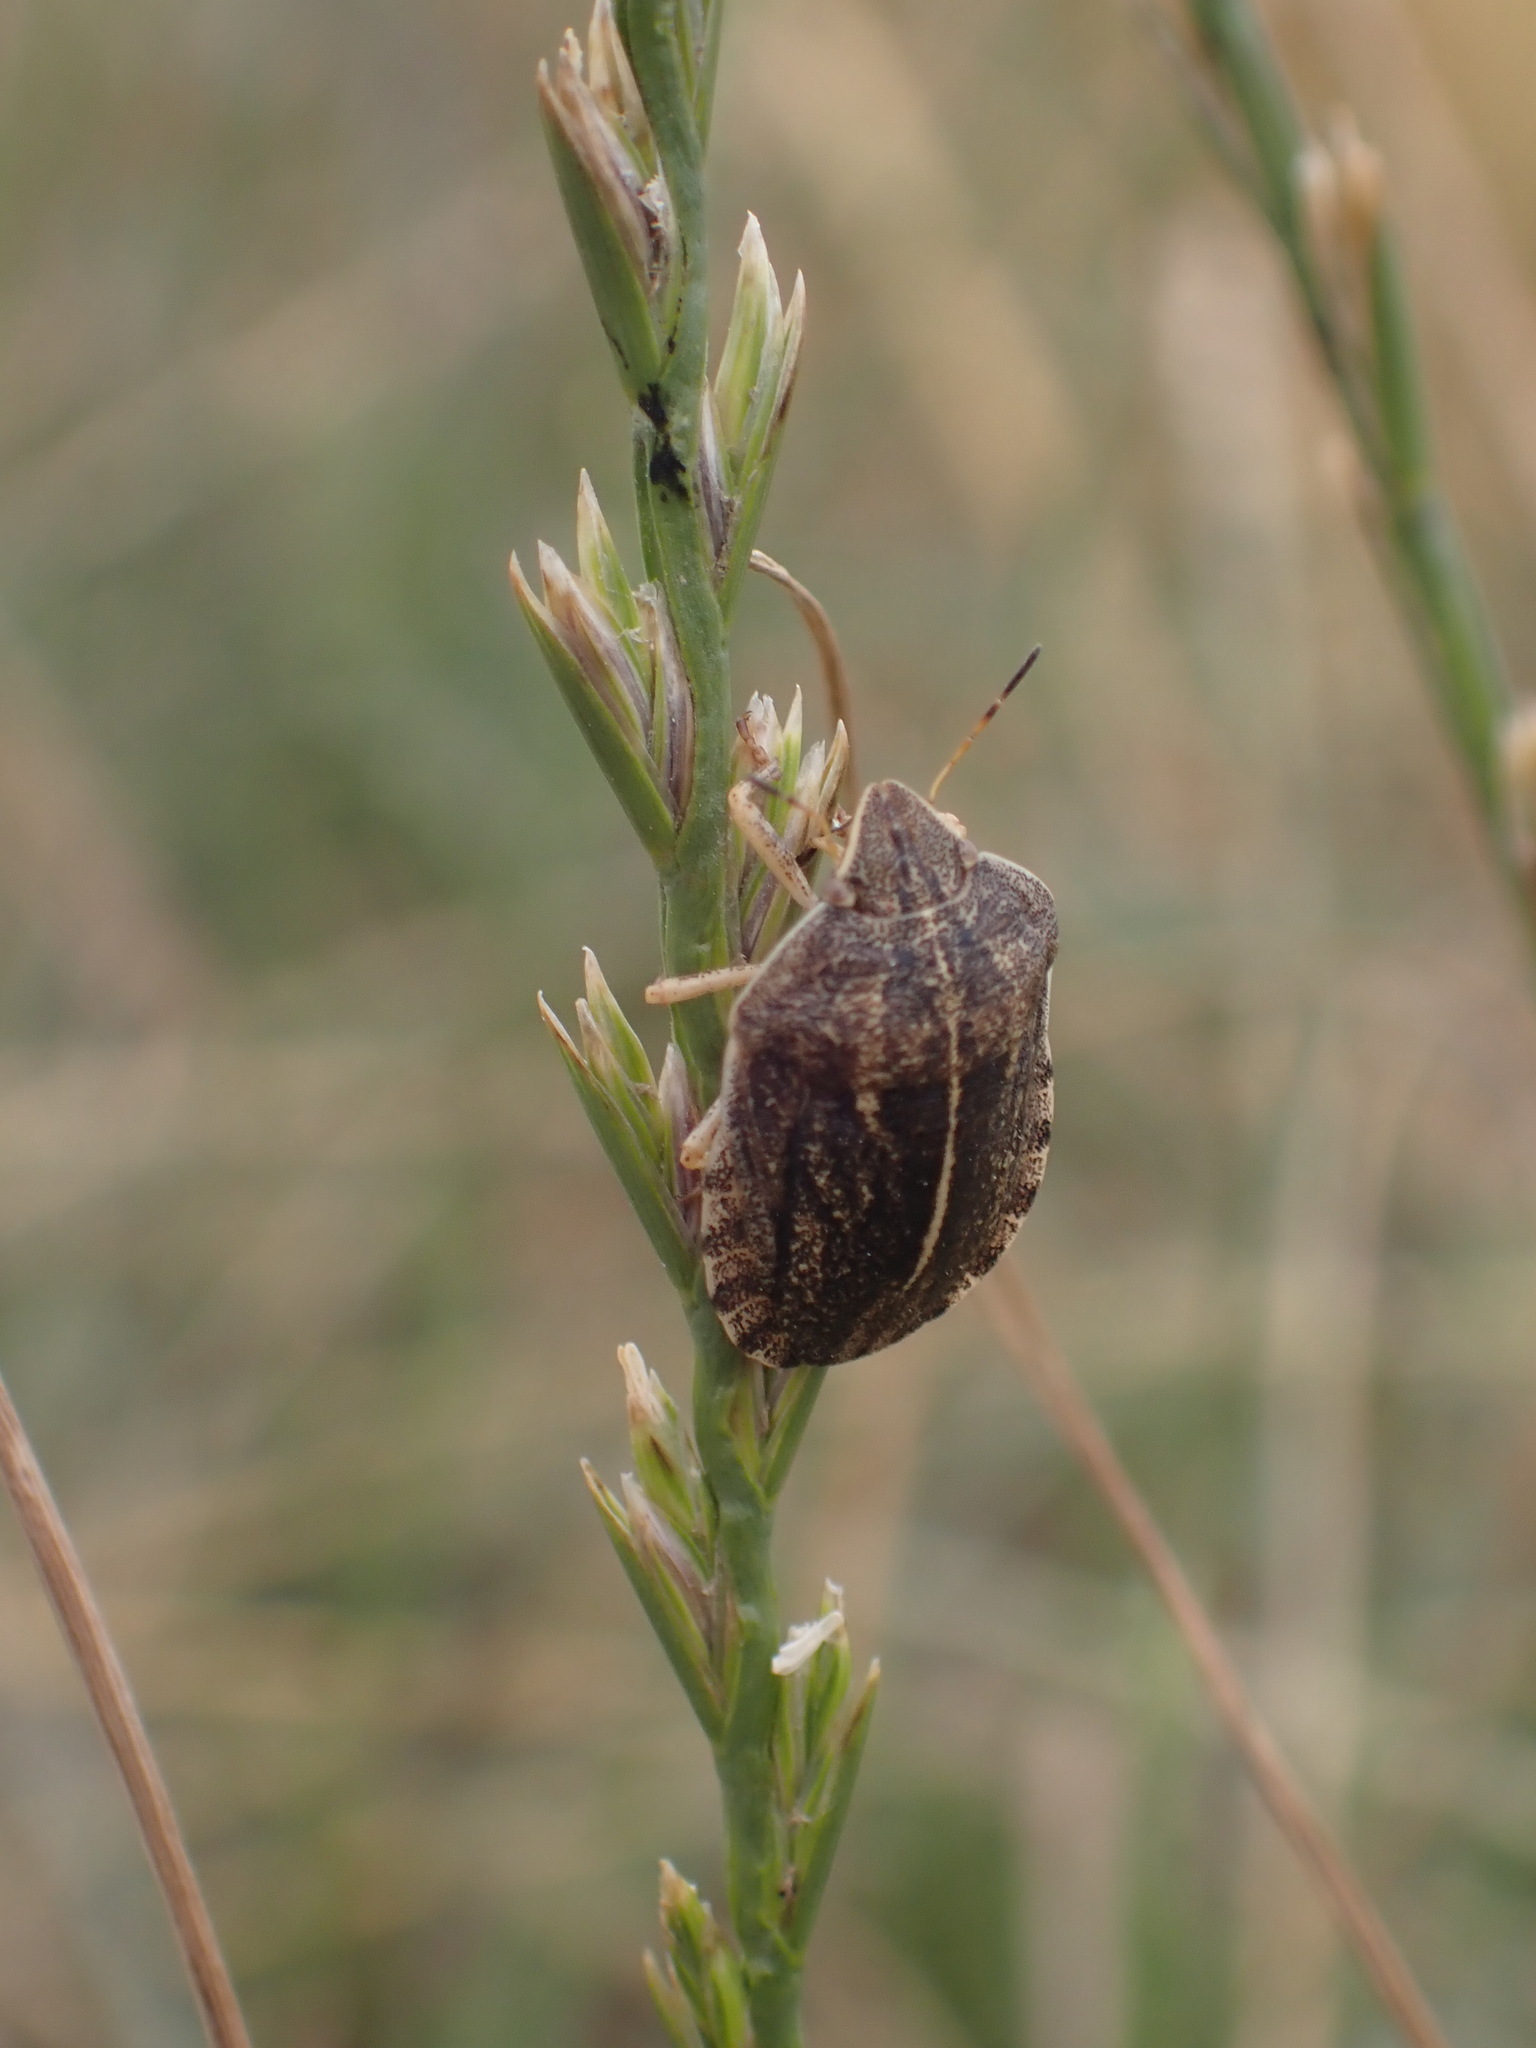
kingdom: Animalia
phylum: Arthropoda
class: Insecta
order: Hemiptera
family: Scutelleridae
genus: Eurygaster
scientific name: Eurygaster austriaca
